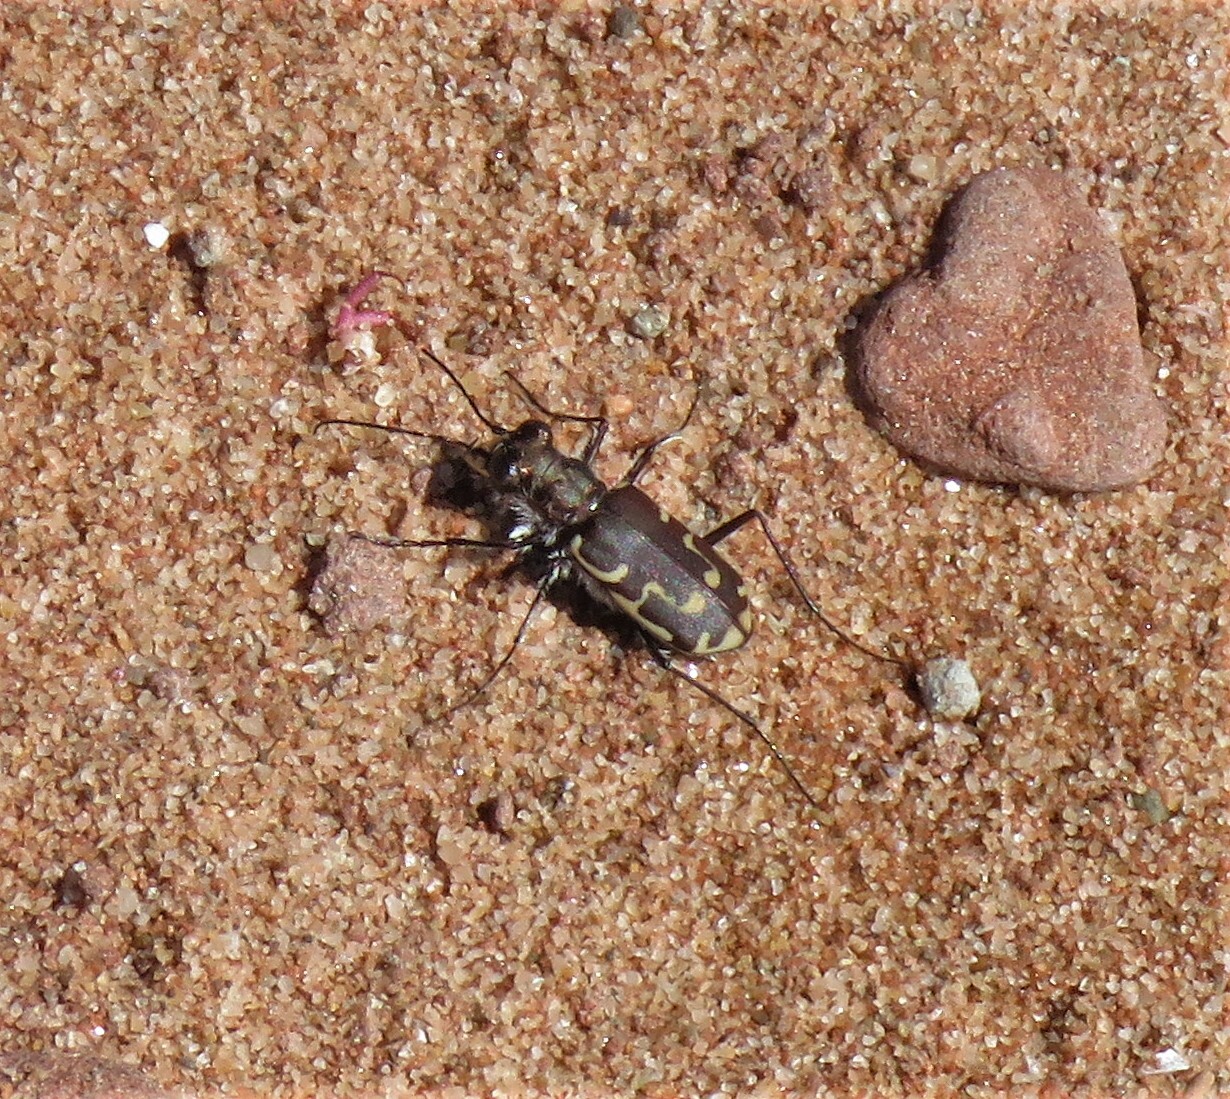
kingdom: Animalia
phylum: Arthropoda
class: Insecta
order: Coleoptera
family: Carabidae
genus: Cicindela
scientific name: Cicindela repanda
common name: Bronzed tiger beetle
